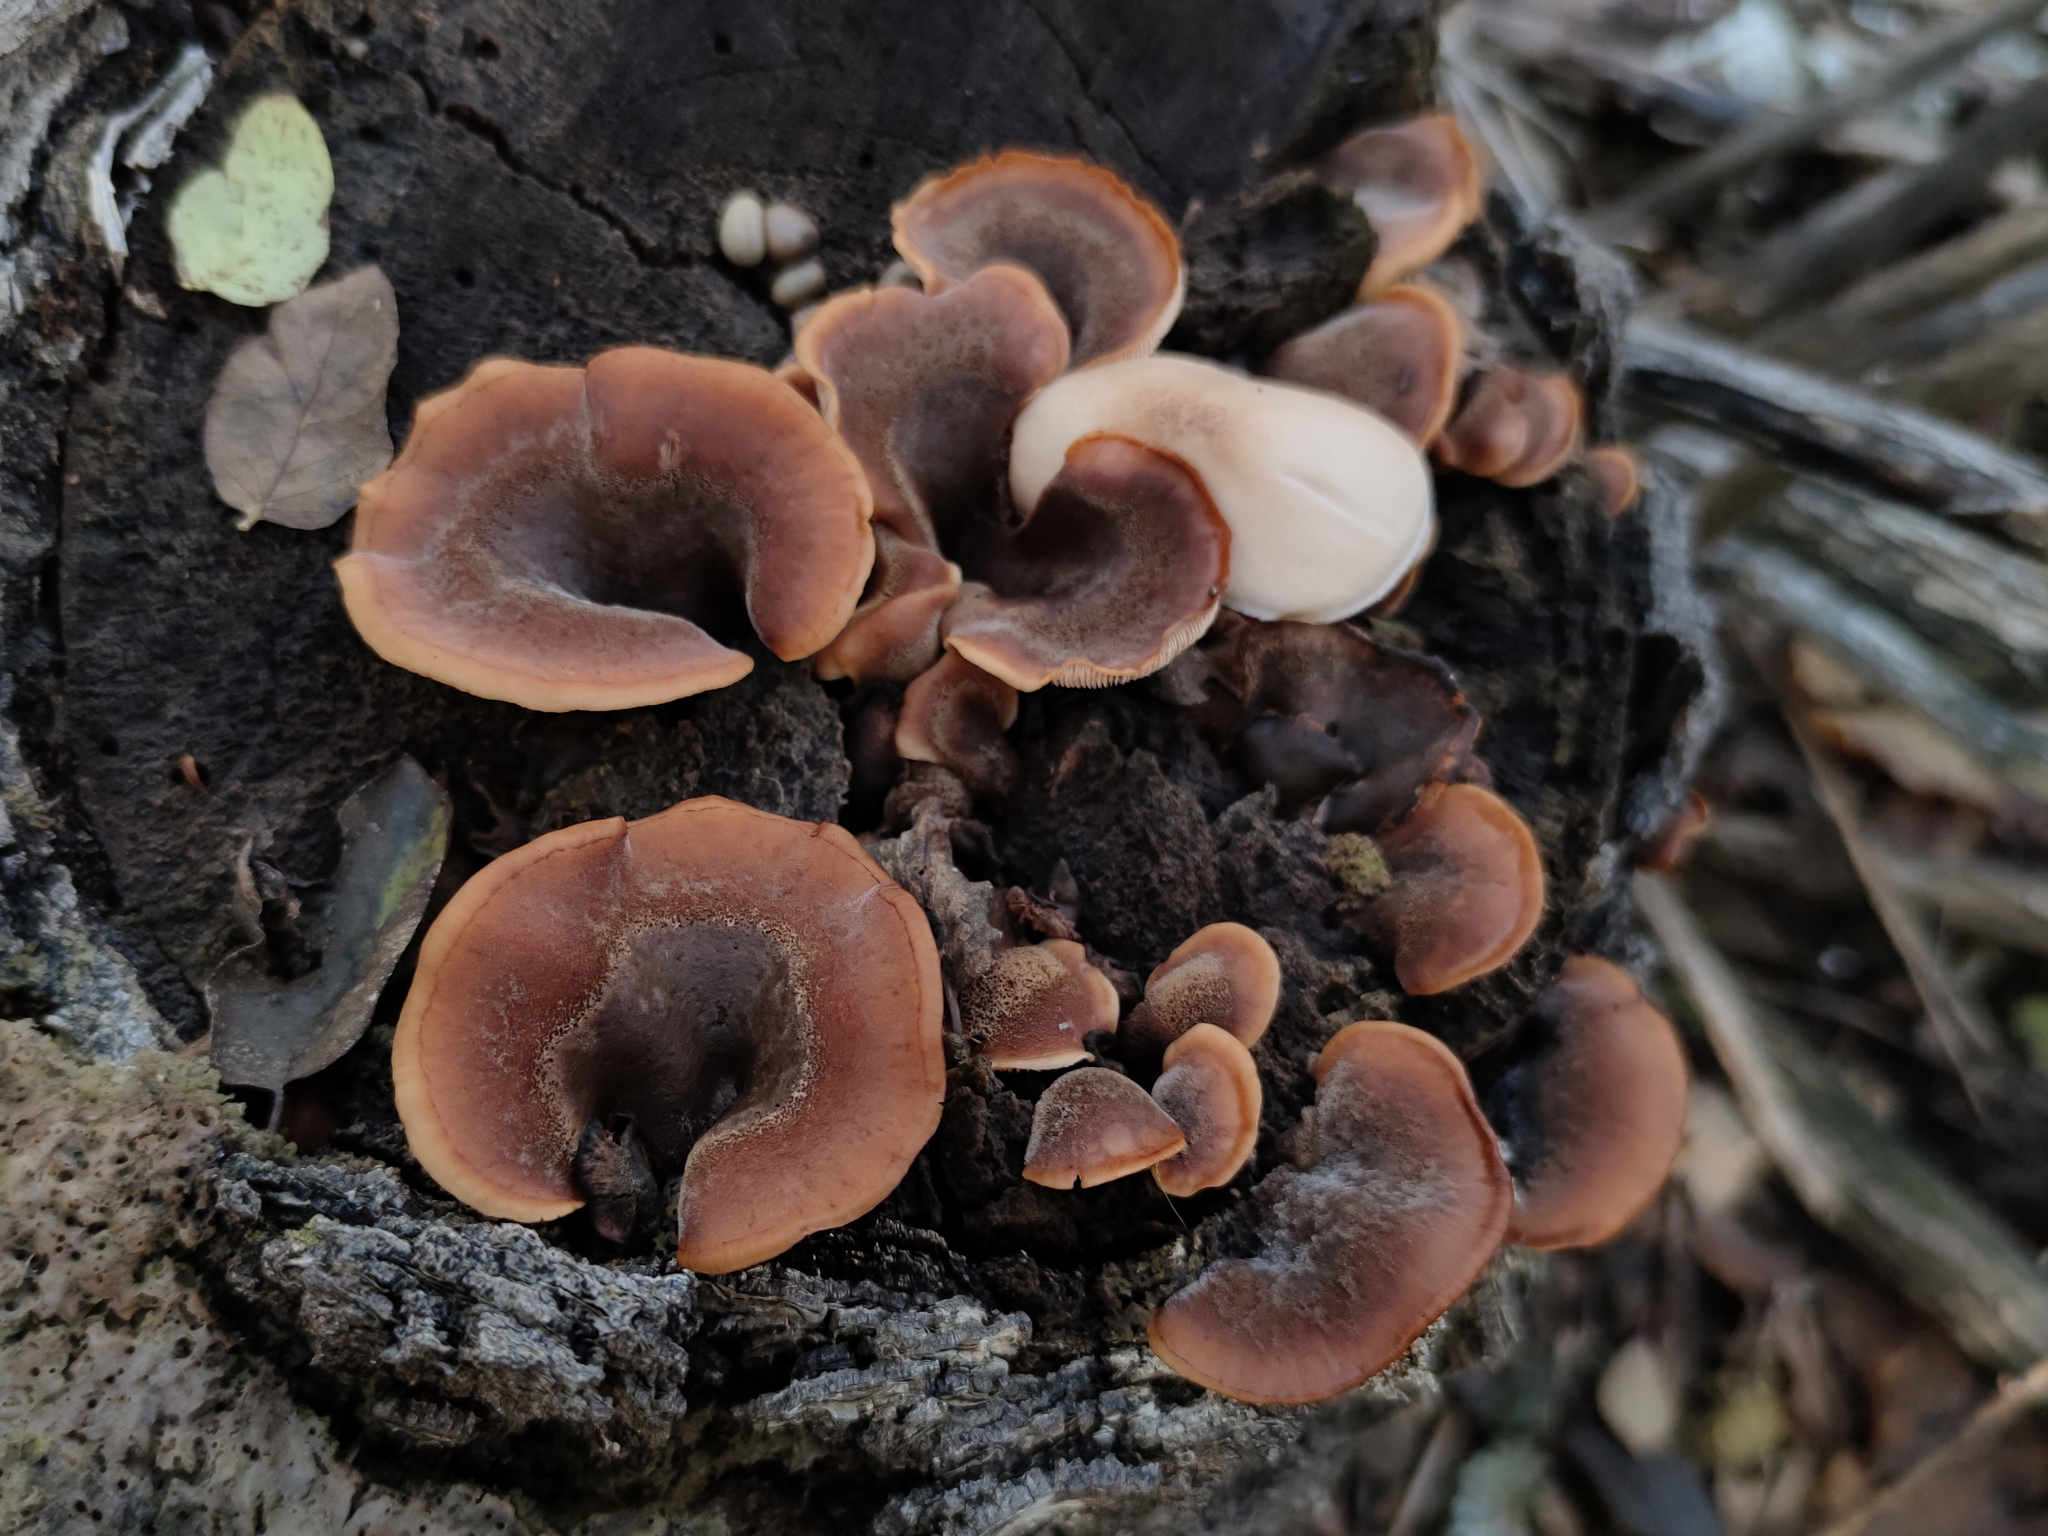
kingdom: Fungi
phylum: Basidiomycota
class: Agaricomycetes
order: Russulales
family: Auriscalpiaceae
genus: Lentinellus
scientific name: Lentinellus ursinus
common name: Bear lentinus
